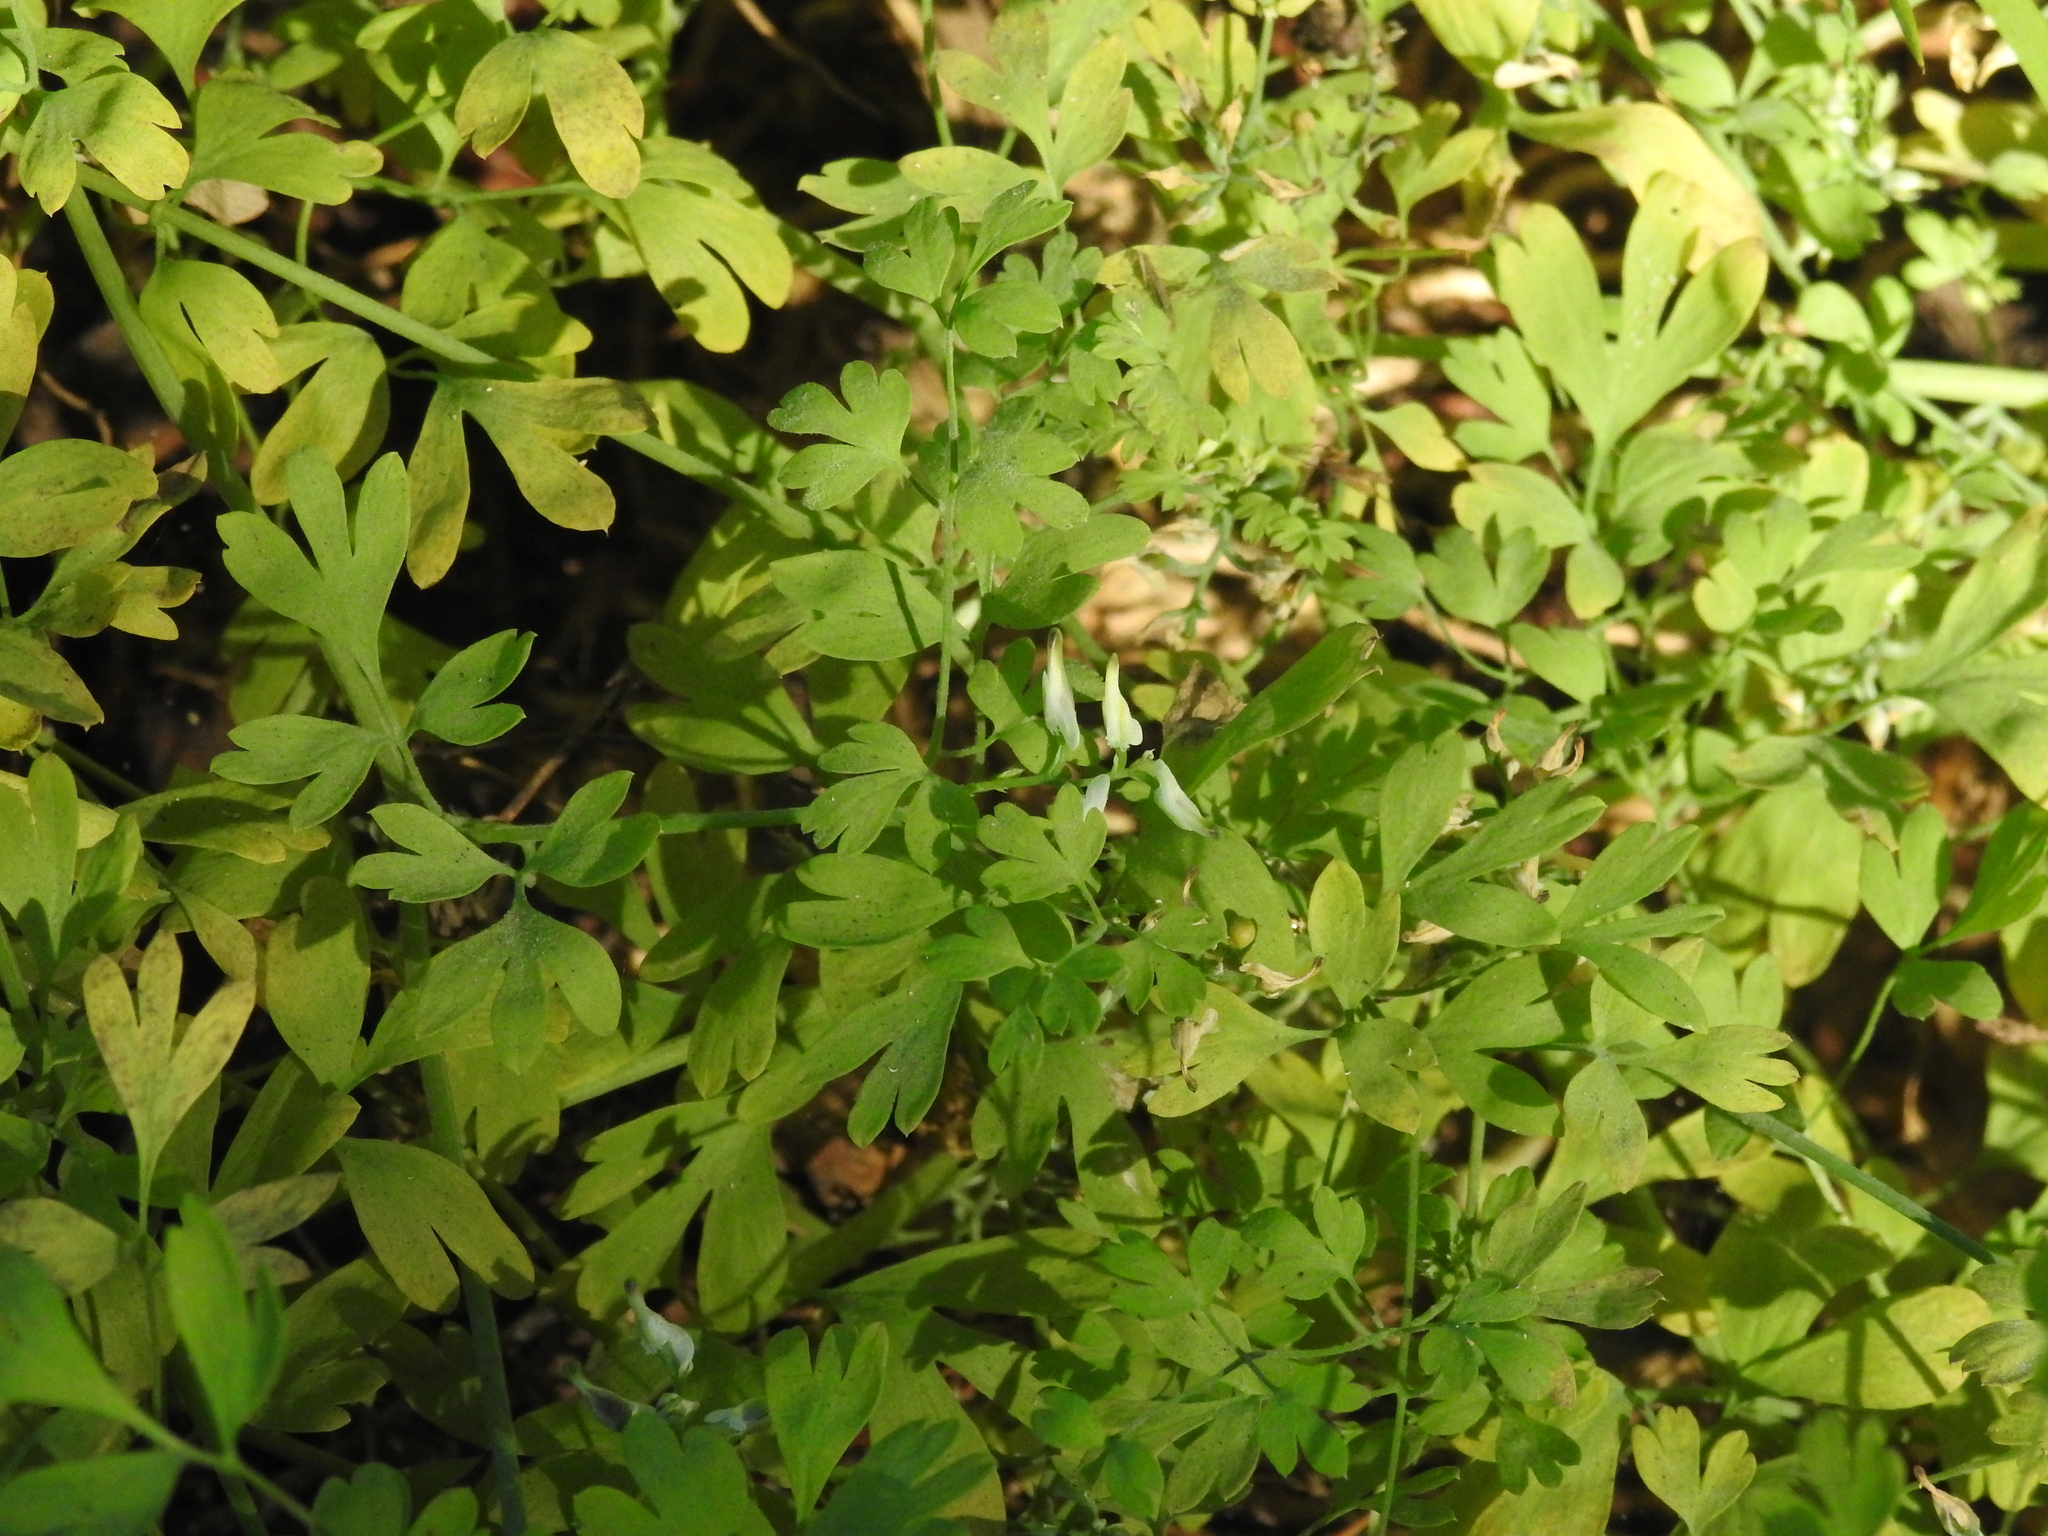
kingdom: Plantae
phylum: Tracheophyta
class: Magnoliopsida
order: Ranunculales
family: Papaveraceae
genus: Fumaria
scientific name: Fumaria capreolata
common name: White ramping-fumitory
